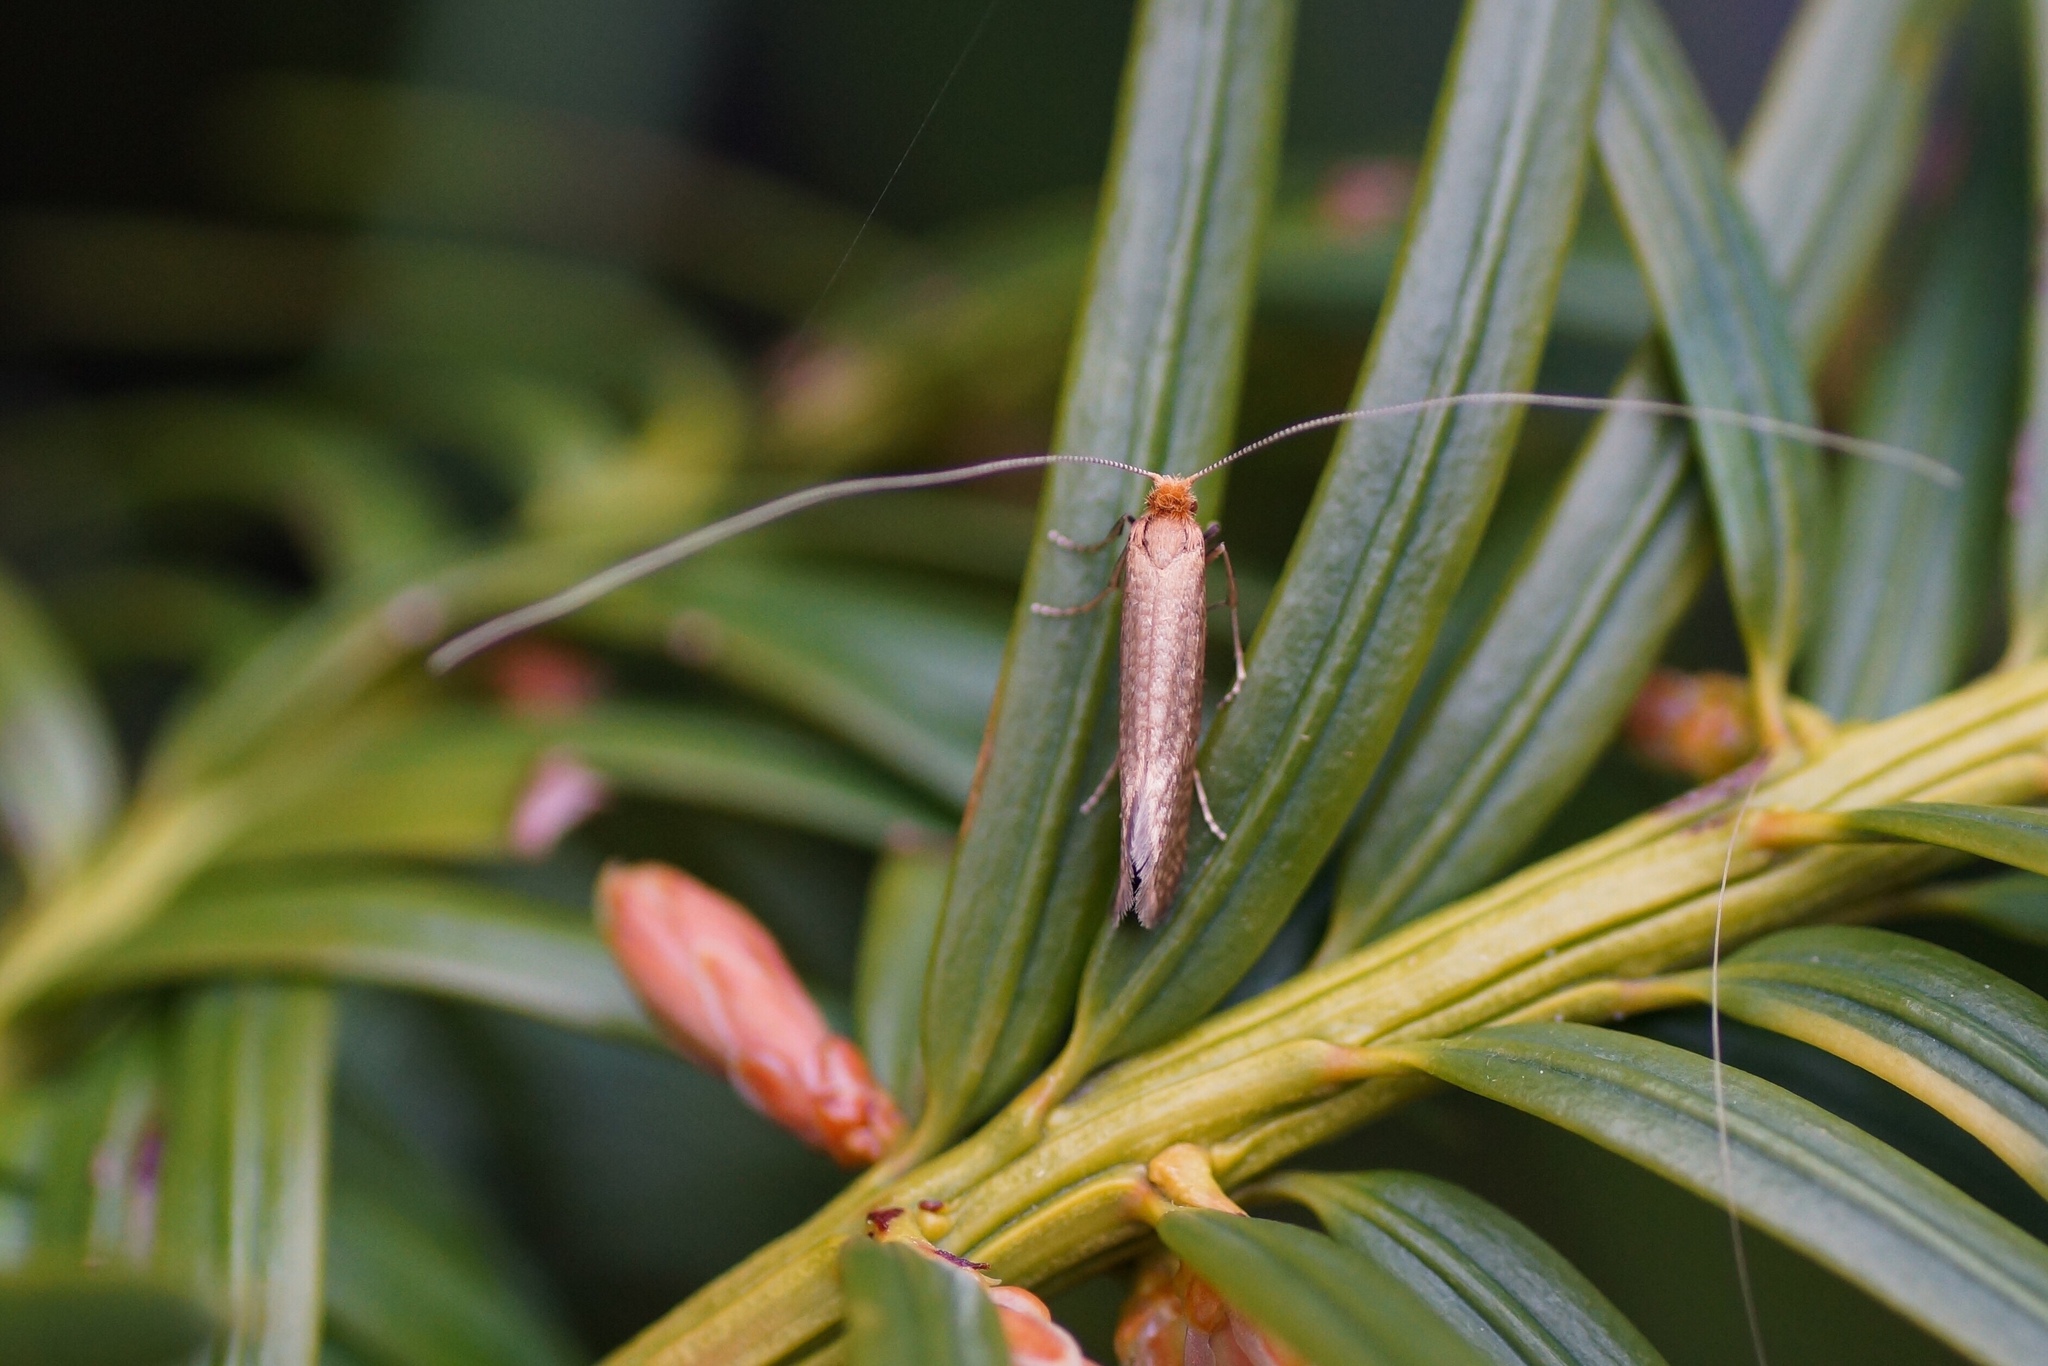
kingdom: Animalia
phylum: Arthropoda
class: Insecta
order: Lepidoptera
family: Adelidae
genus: Nematopogon
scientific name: Nematopogon adansoniella
